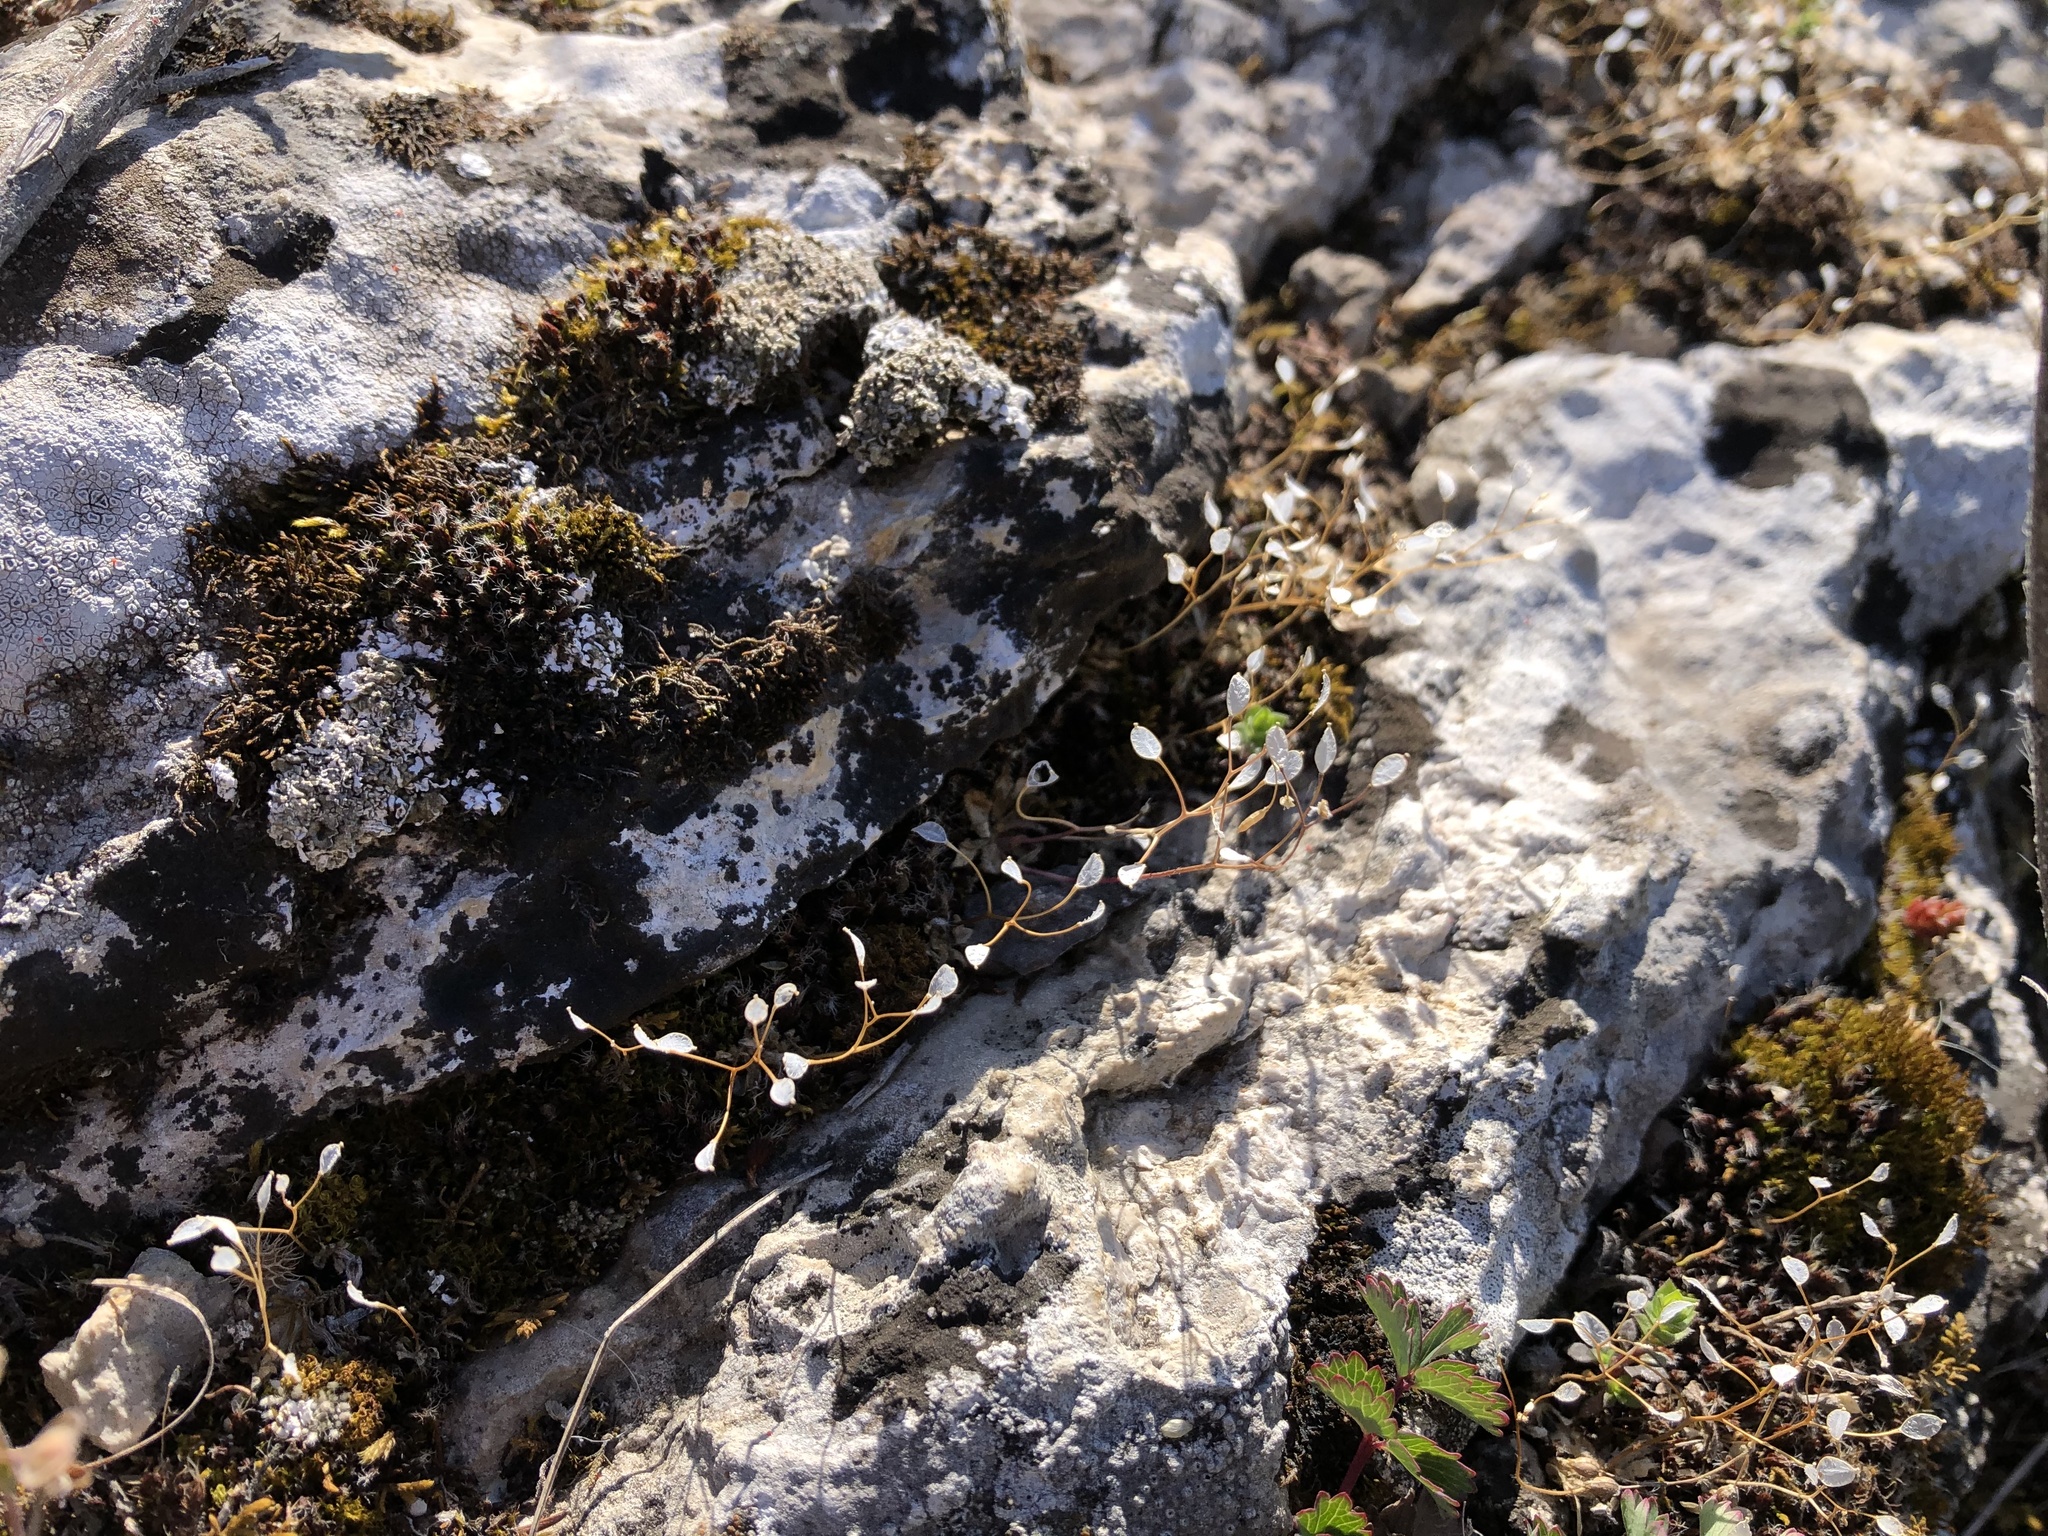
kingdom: Plantae
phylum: Tracheophyta
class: Magnoliopsida
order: Brassicales
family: Brassicaceae
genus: Draba
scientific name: Draba verna
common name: Spring draba
